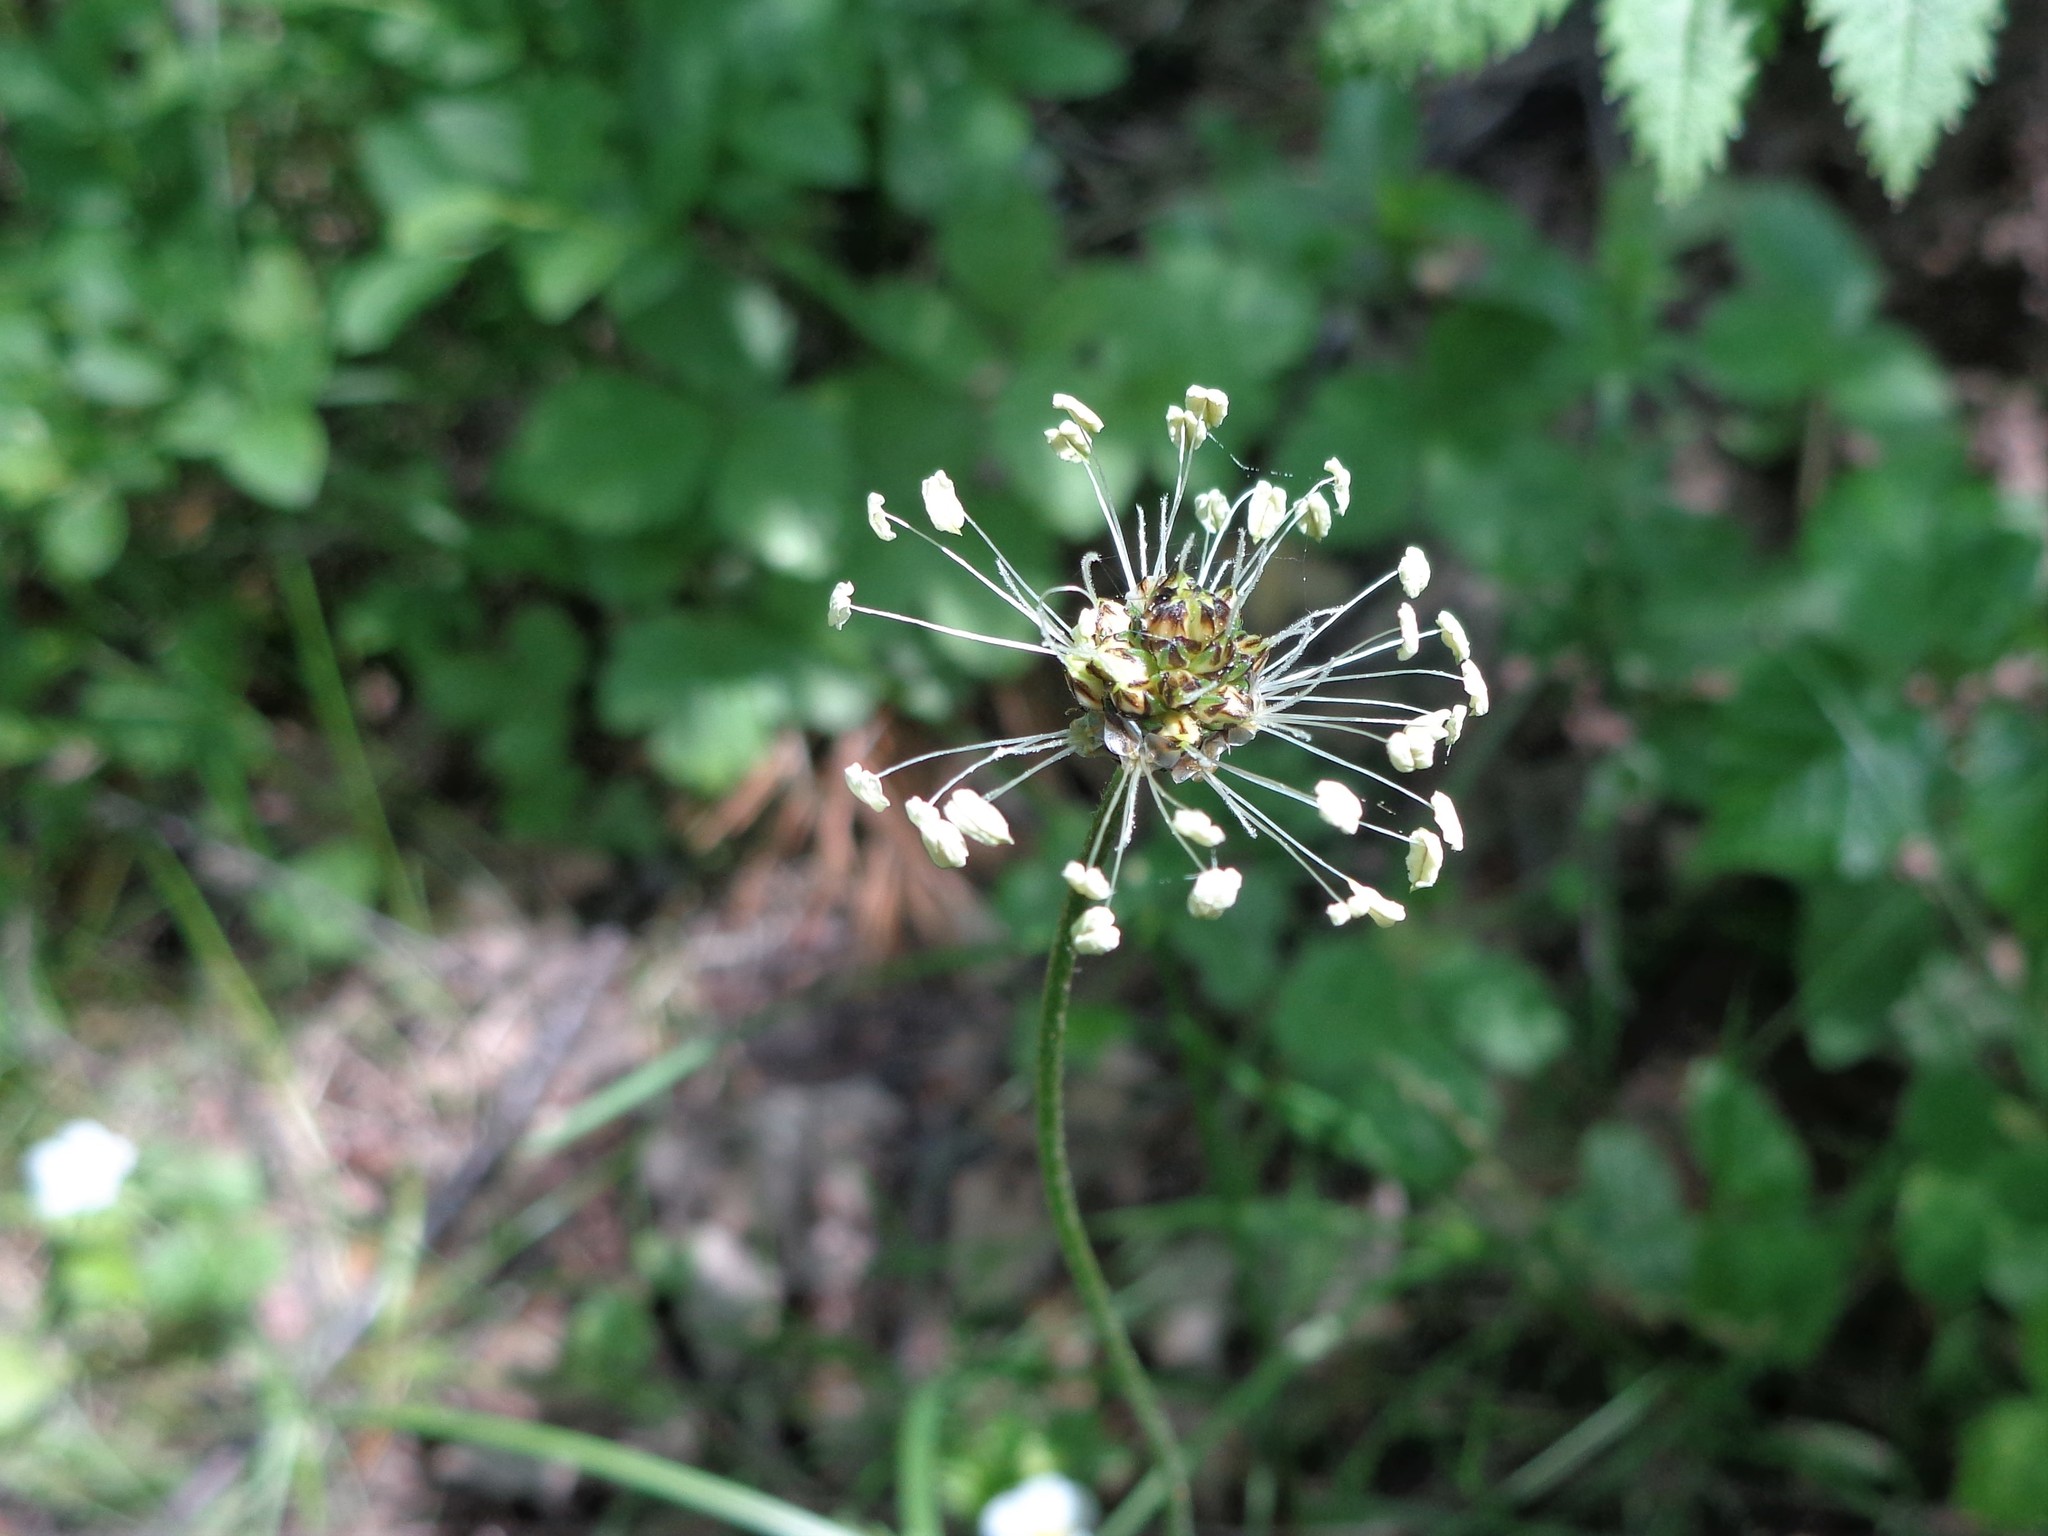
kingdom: Plantae
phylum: Tracheophyta
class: Magnoliopsida
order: Lamiales
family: Plantaginaceae
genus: Plantago
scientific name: Plantago lanceolata
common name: Ribwort plantain
